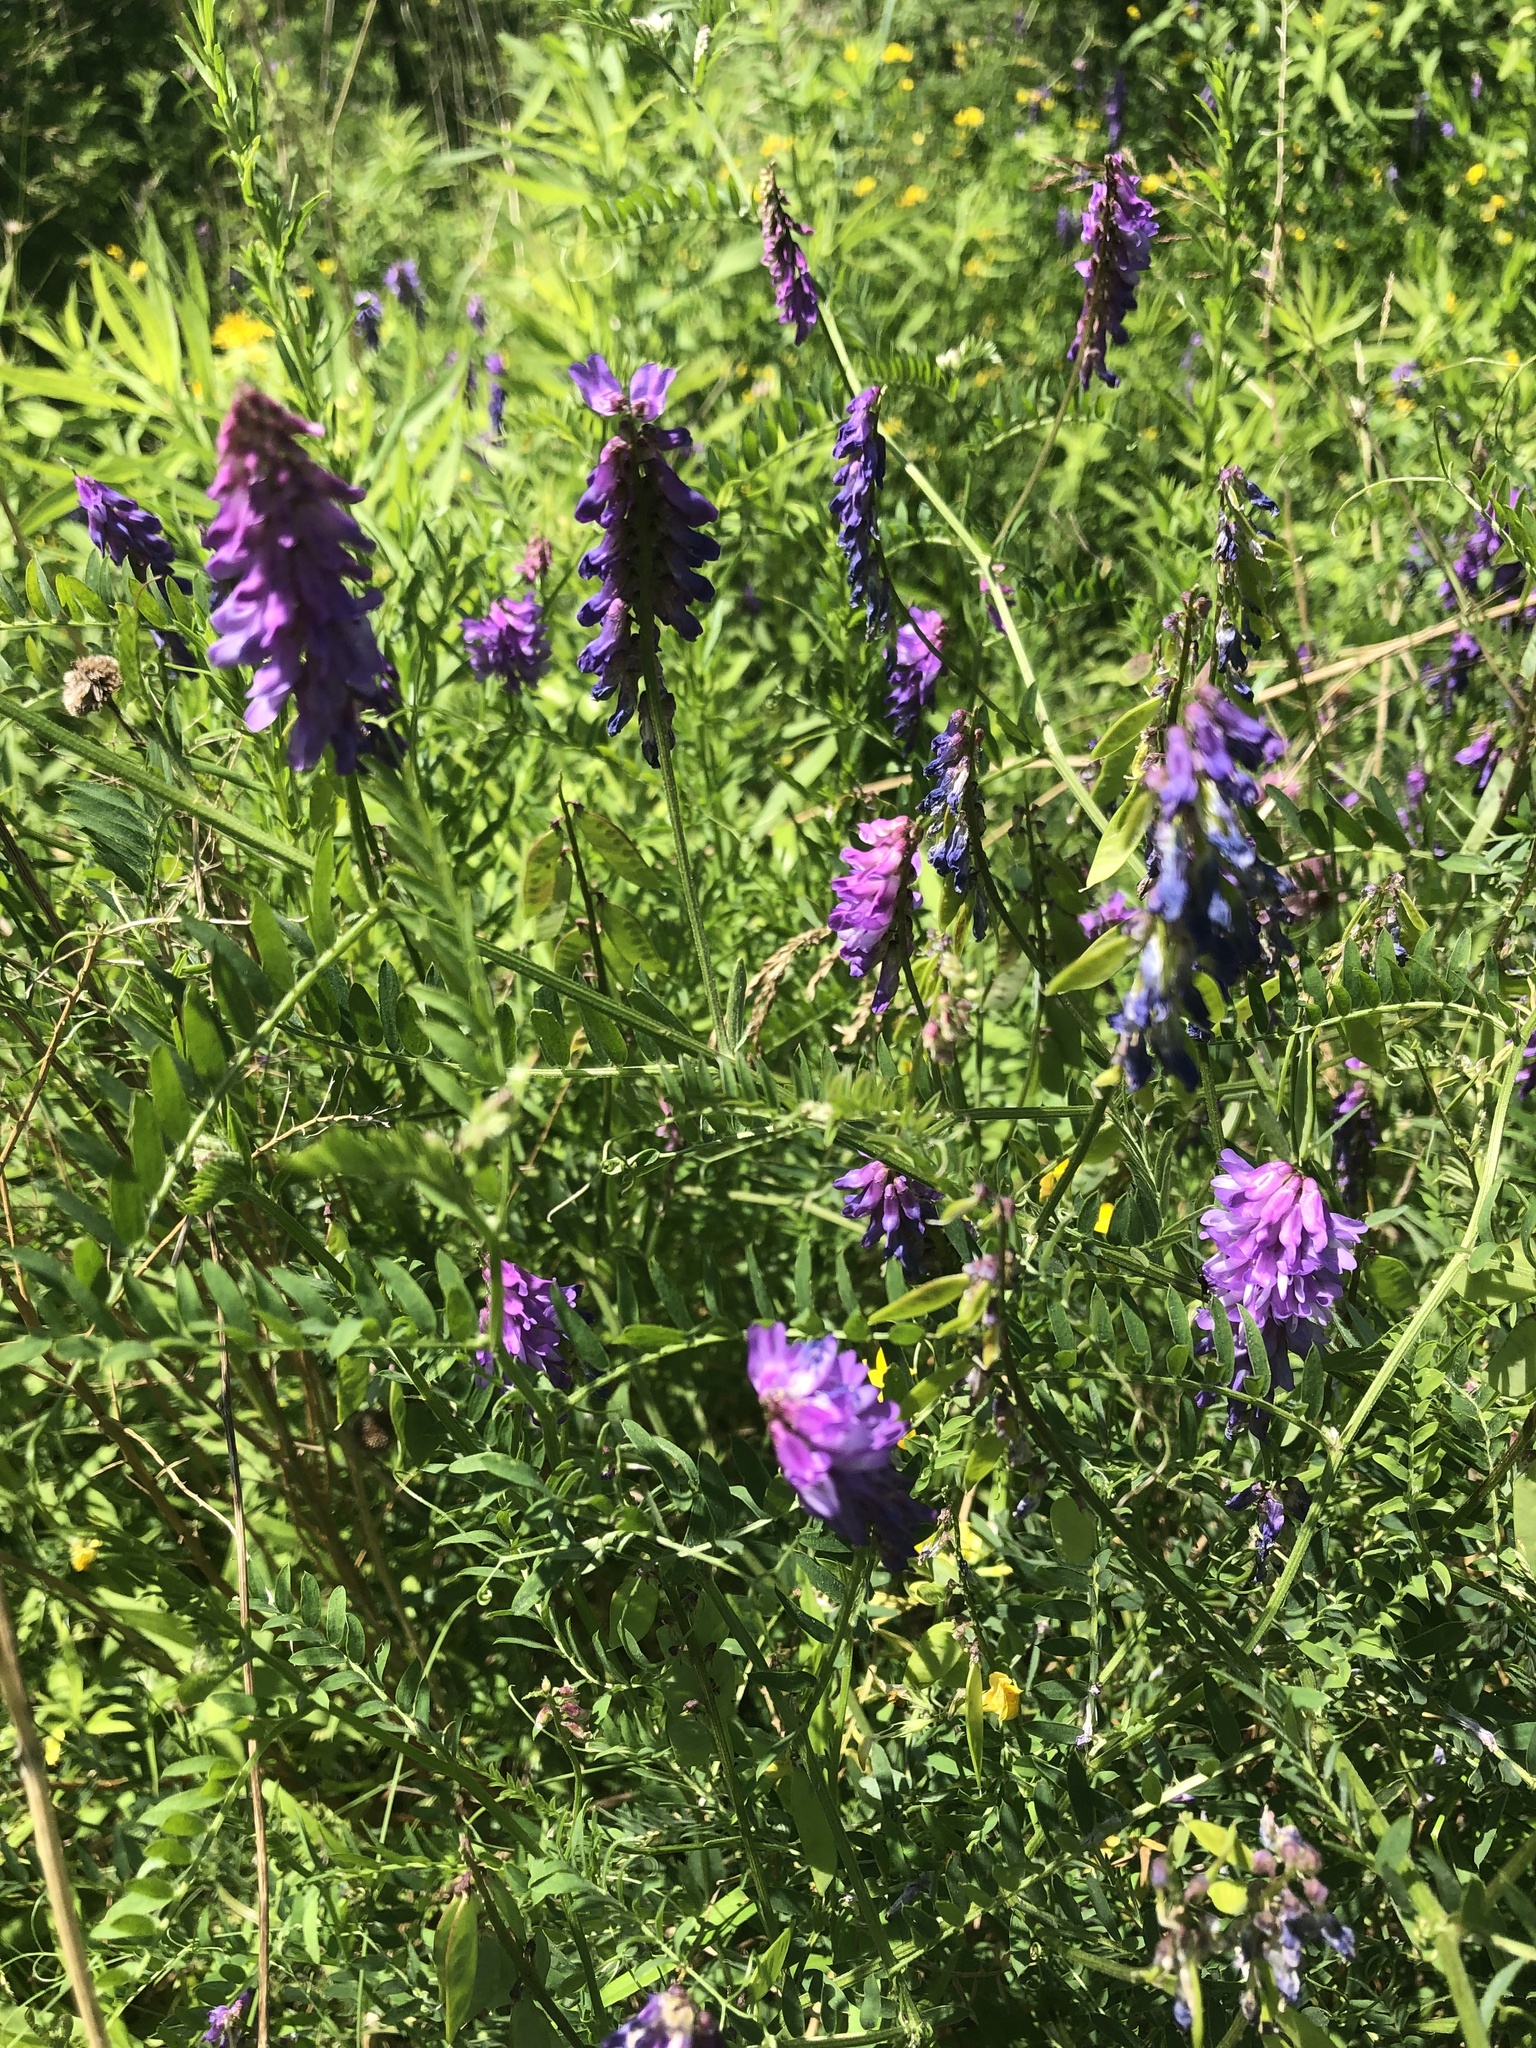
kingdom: Plantae
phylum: Tracheophyta
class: Magnoliopsida
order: Fabales
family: Fabaceae
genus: Vicia
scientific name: Vicia cracca
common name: Bird vetch
